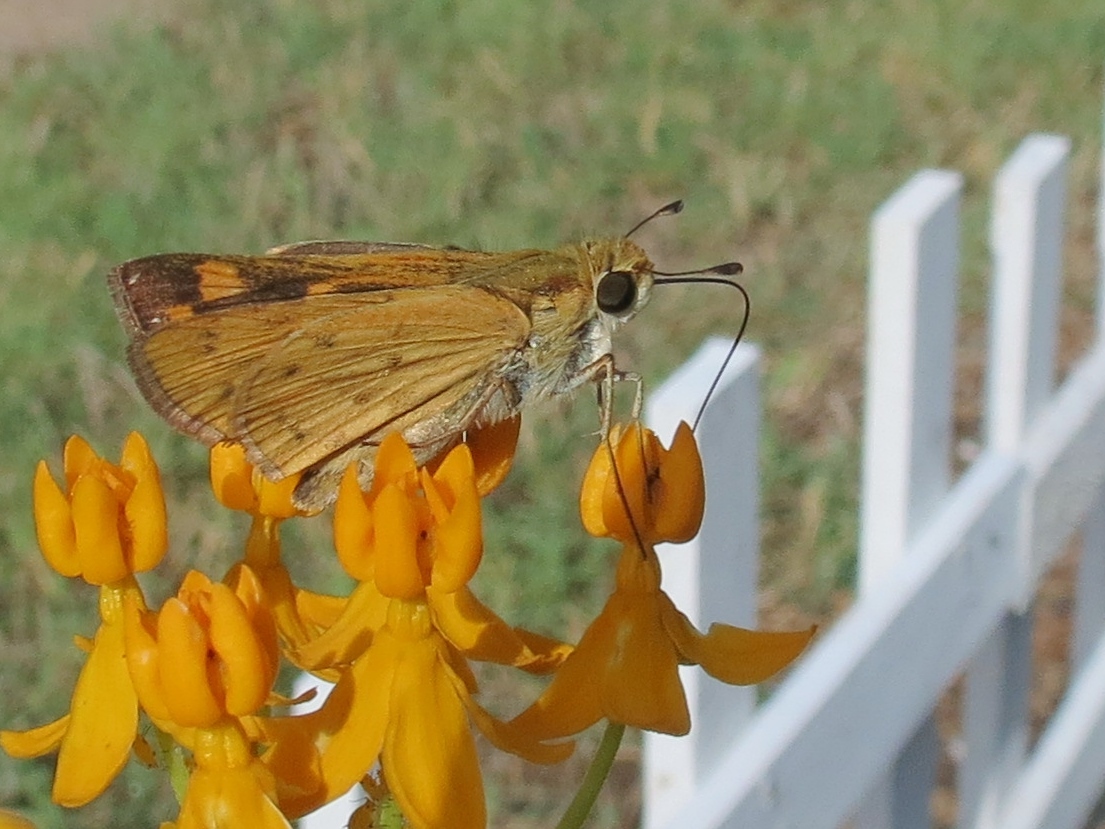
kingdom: Animalia
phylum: Arthropoda
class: Insecta
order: Lepidoptera
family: Hesperiidae
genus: Hylephila
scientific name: Hylephila phyleus
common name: Fiery skipper
